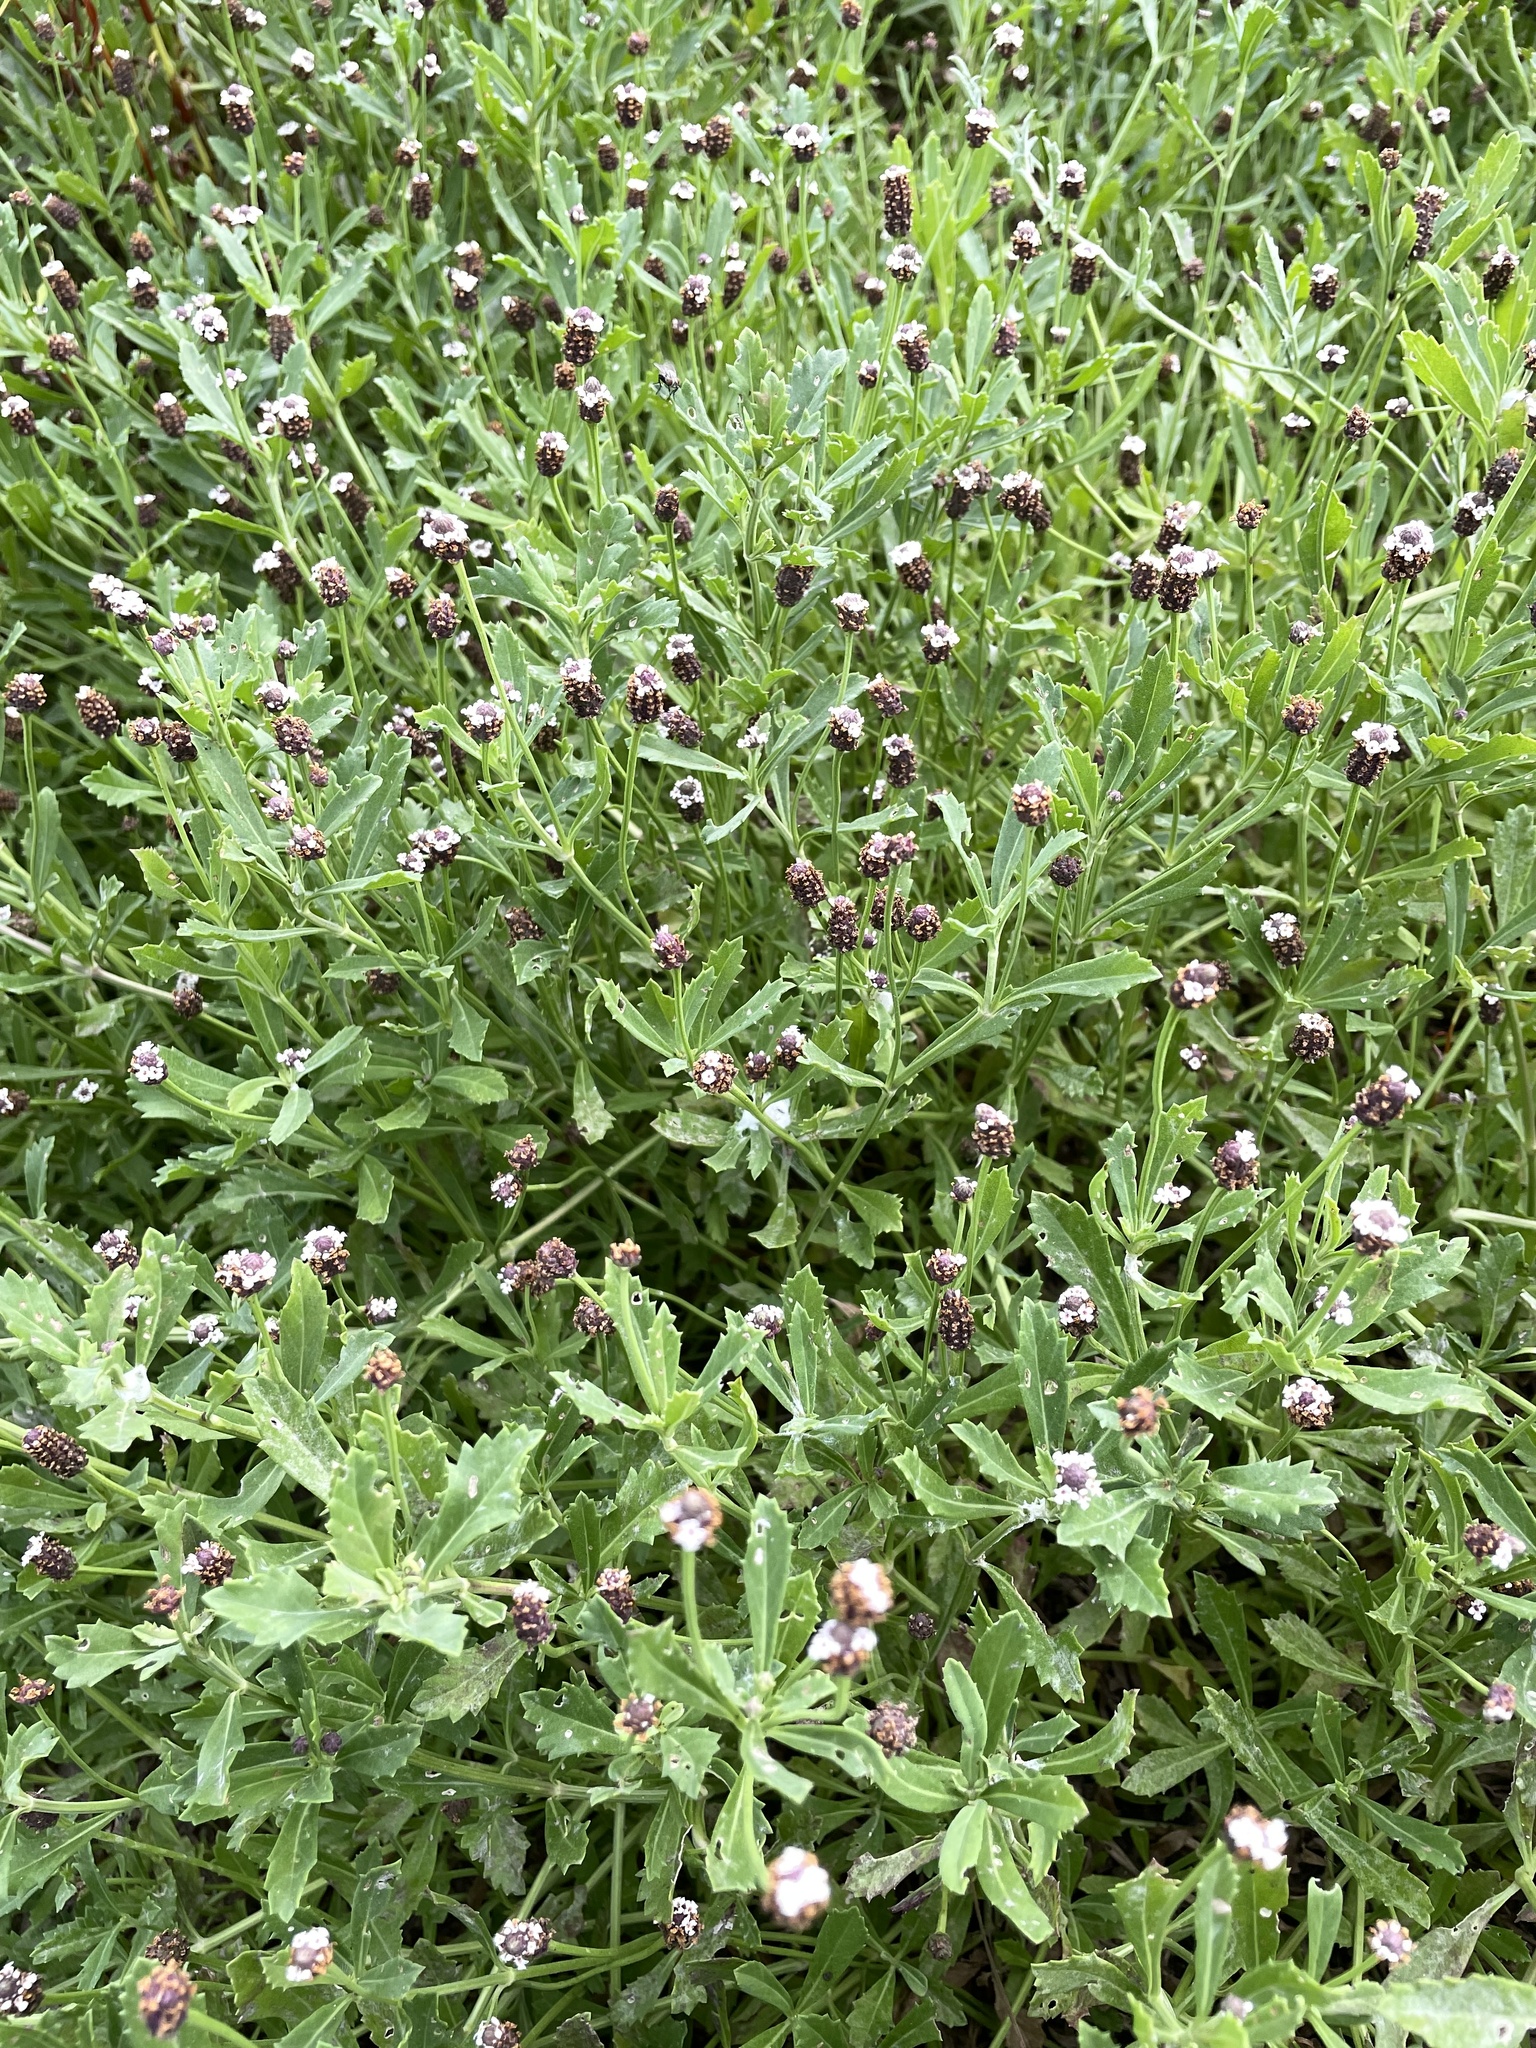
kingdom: Plantae
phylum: Tracheophyta
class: Magnoliopsida
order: Lamiales
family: Verbenaceae
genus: Phyla
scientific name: Phyla nodiflora
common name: Frogfruit
